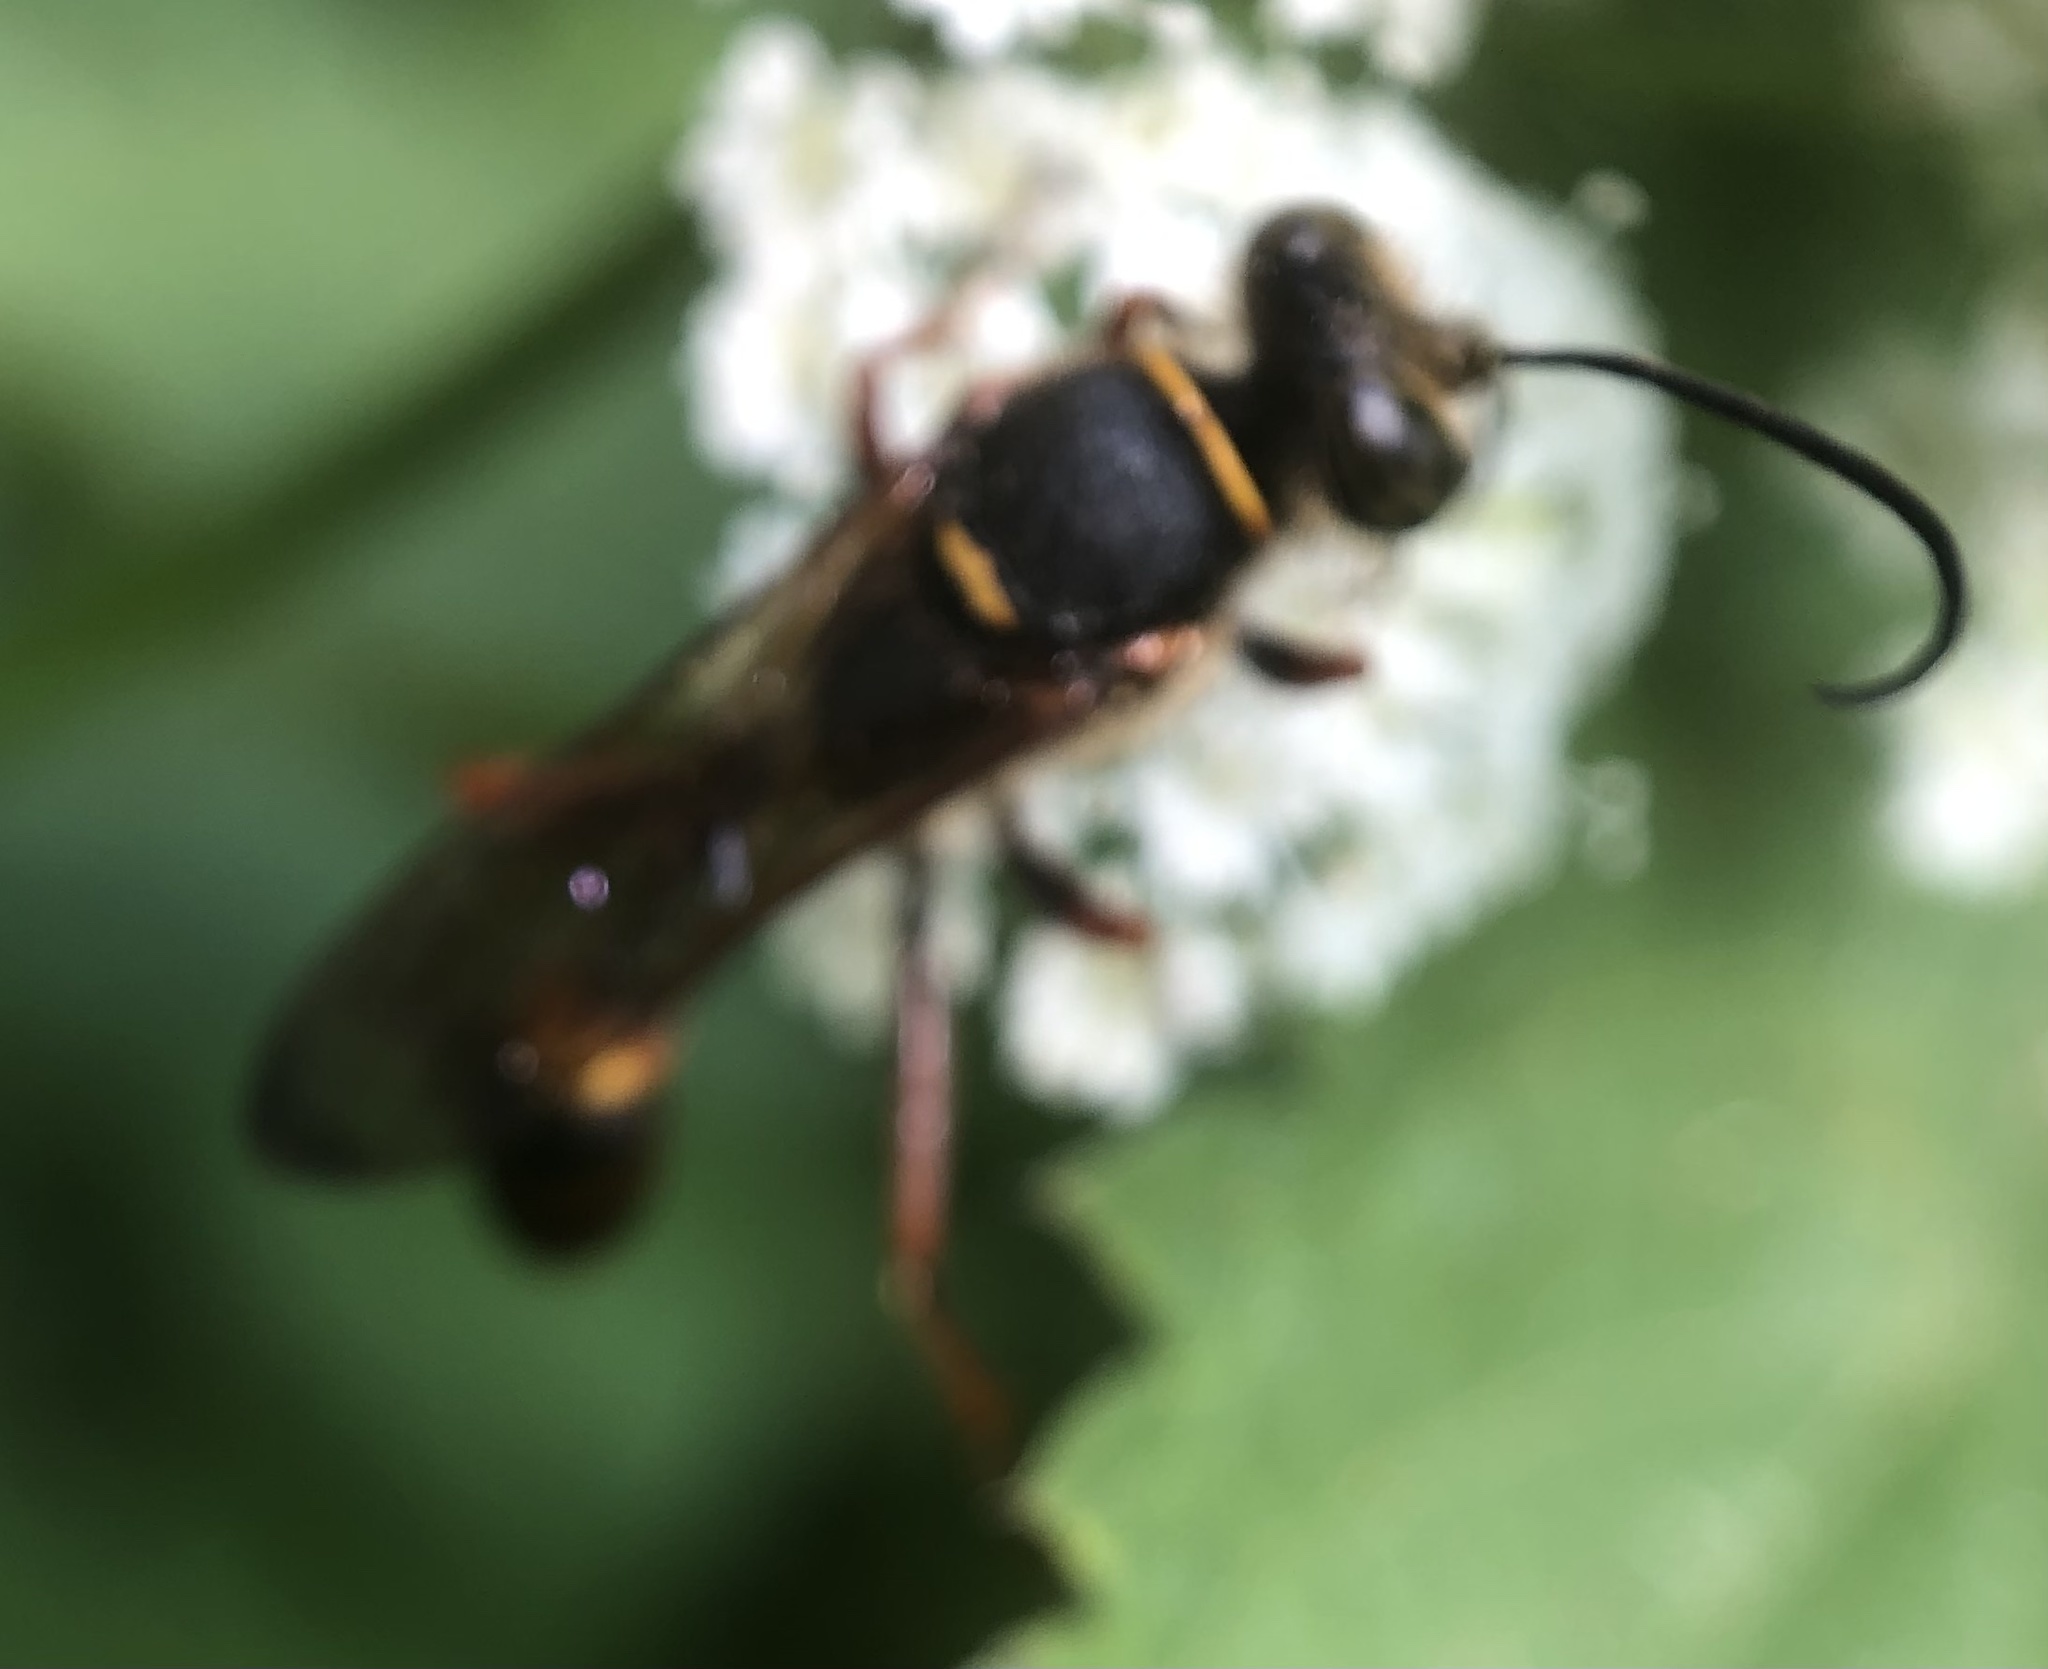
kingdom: Animalia
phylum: Arthropoda
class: Insecta
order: Hymenoptera
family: Sphecidae
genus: Sceliphron
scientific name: Sceliphron curvatum
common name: Pèlopèe
